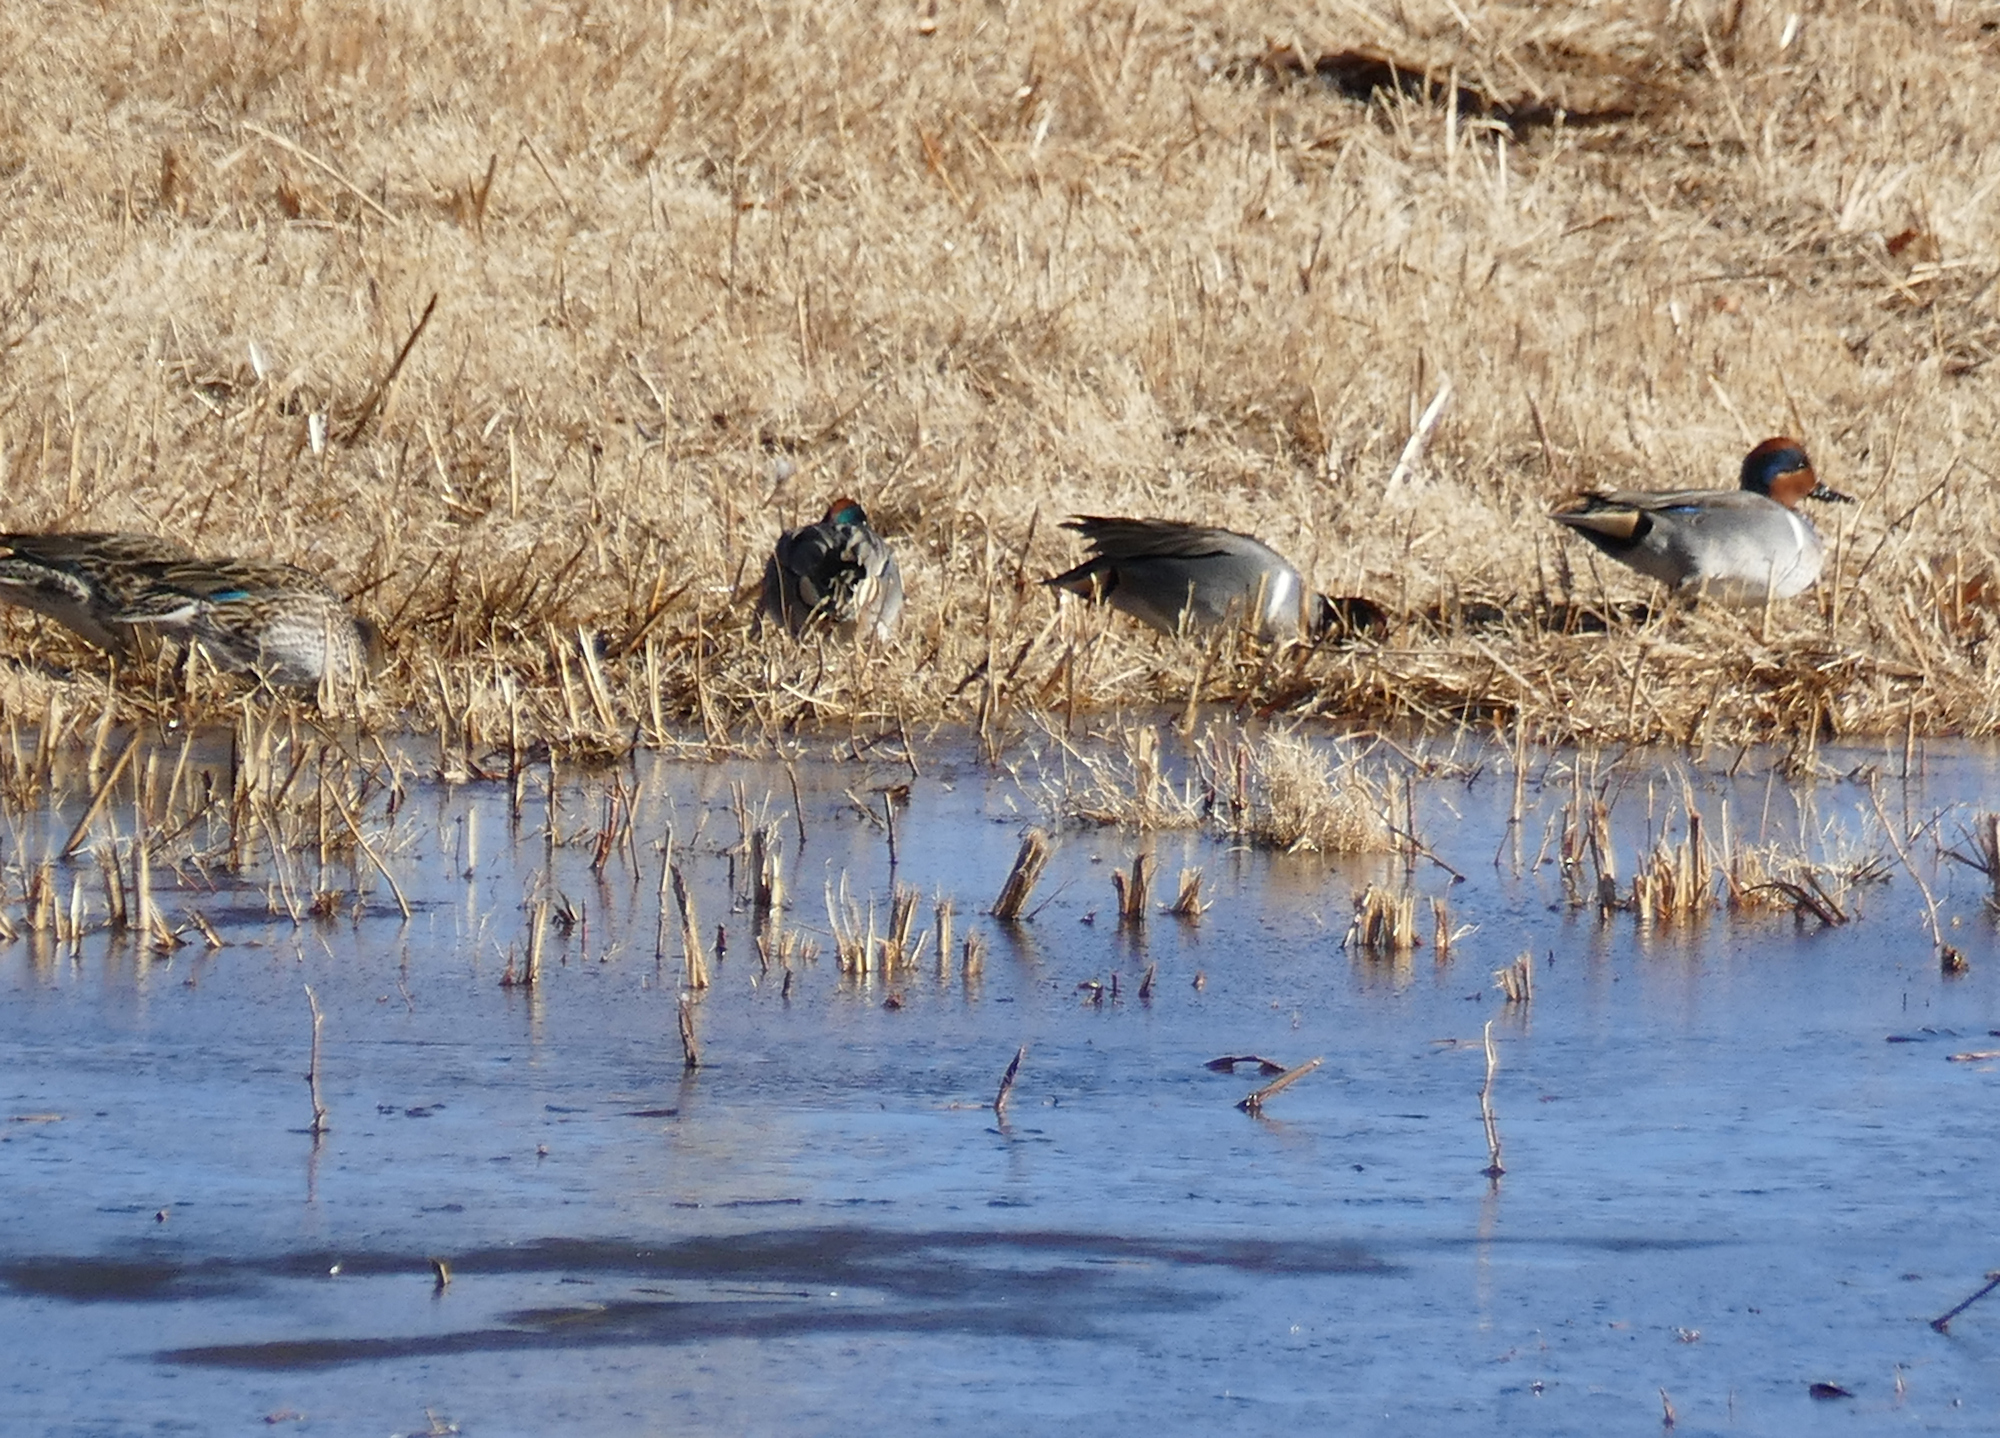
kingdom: Animalia
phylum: Chordata
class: Aves
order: Anseriformes
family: Anatidae
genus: Anas
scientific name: Anas crecca
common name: Eurasian teal
